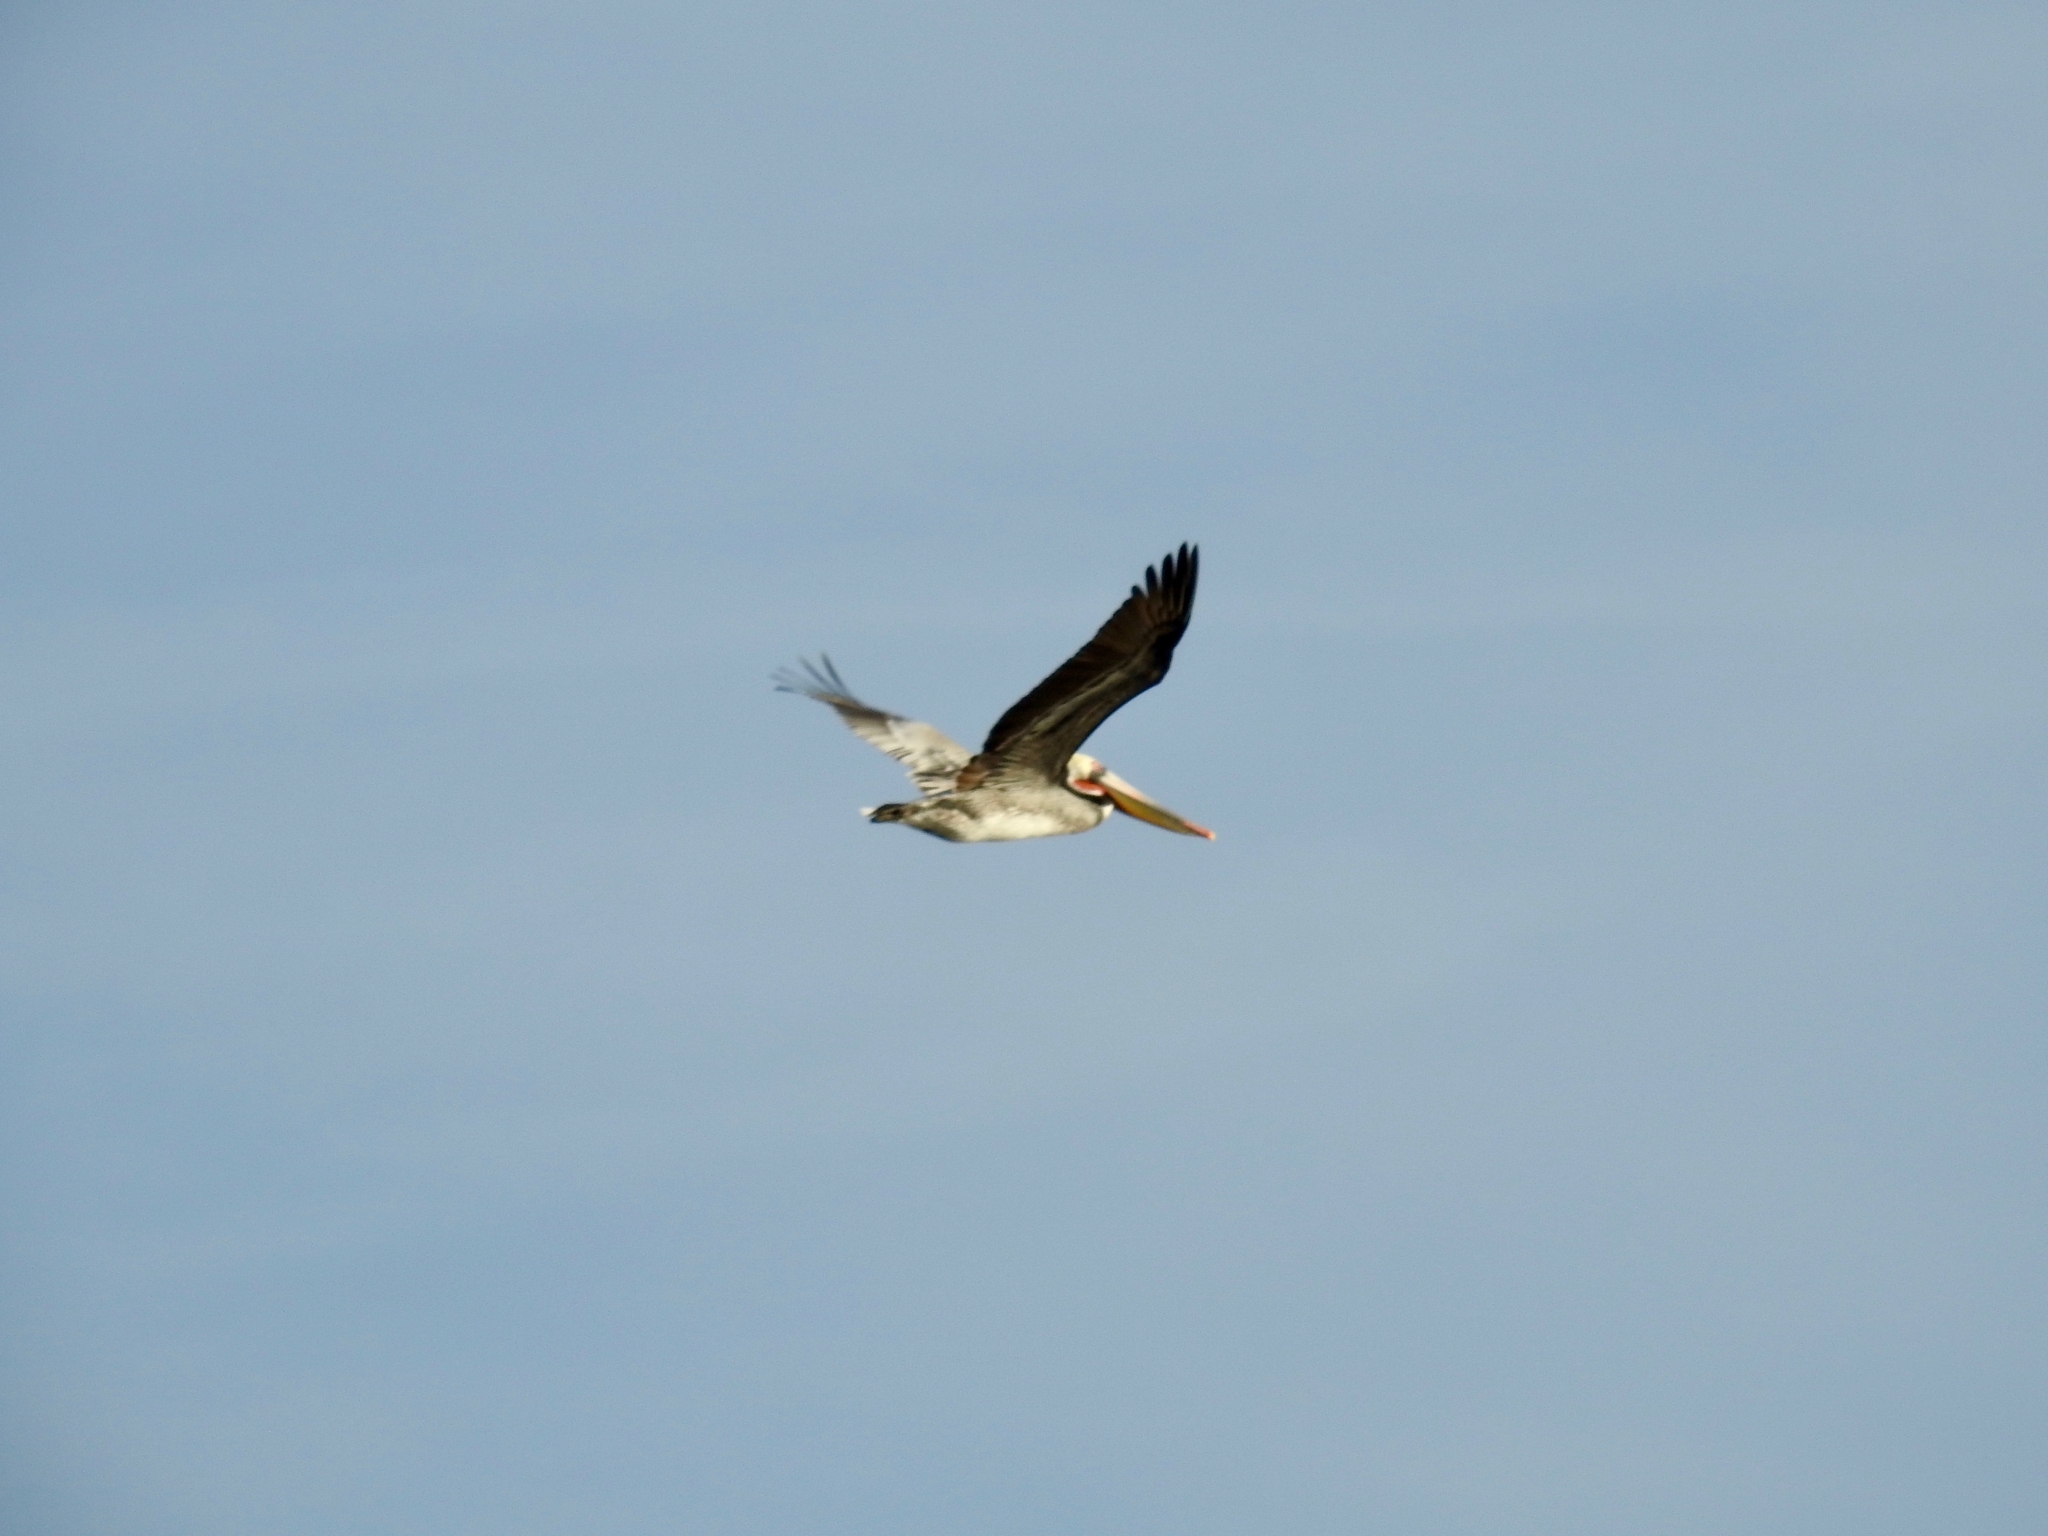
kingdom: Animalia
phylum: Chordata
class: Aves
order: Pelecaniformes
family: Pelecanidae
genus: Pelecanus
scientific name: Pelecanus occidentalis
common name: Brown pelican
